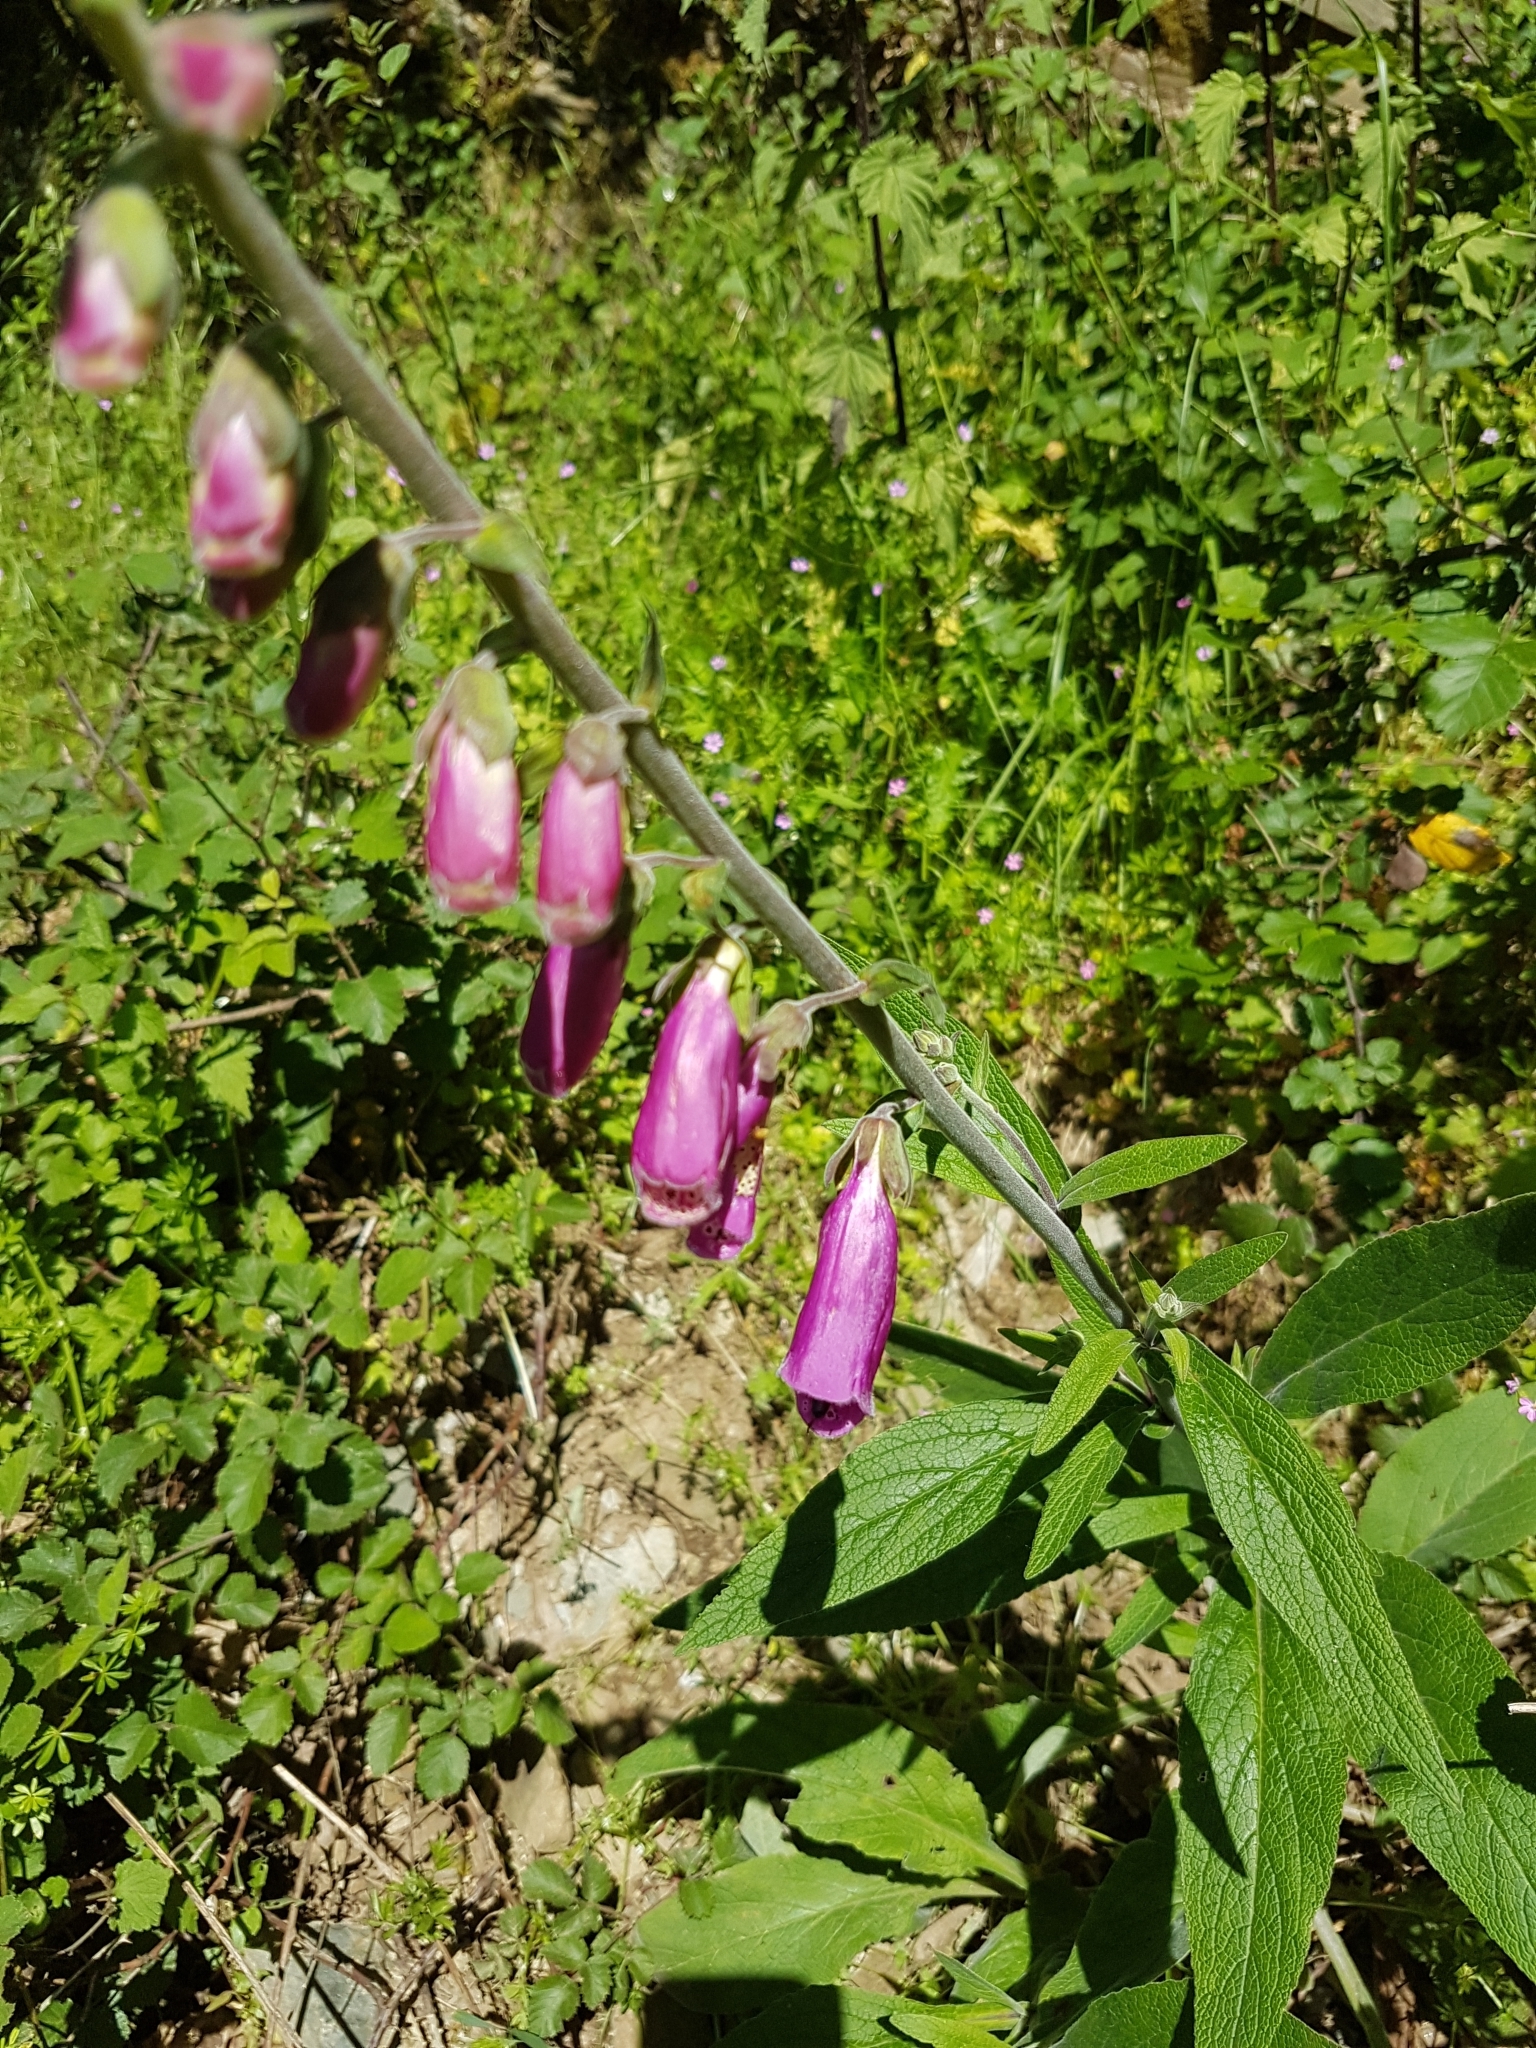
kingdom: Plantae
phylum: Tracheophyta
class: Magnoliopsida
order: Lamiales
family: Plantaginaceae
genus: Digitalis
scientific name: Digitalis purpurea
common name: Foxglove
